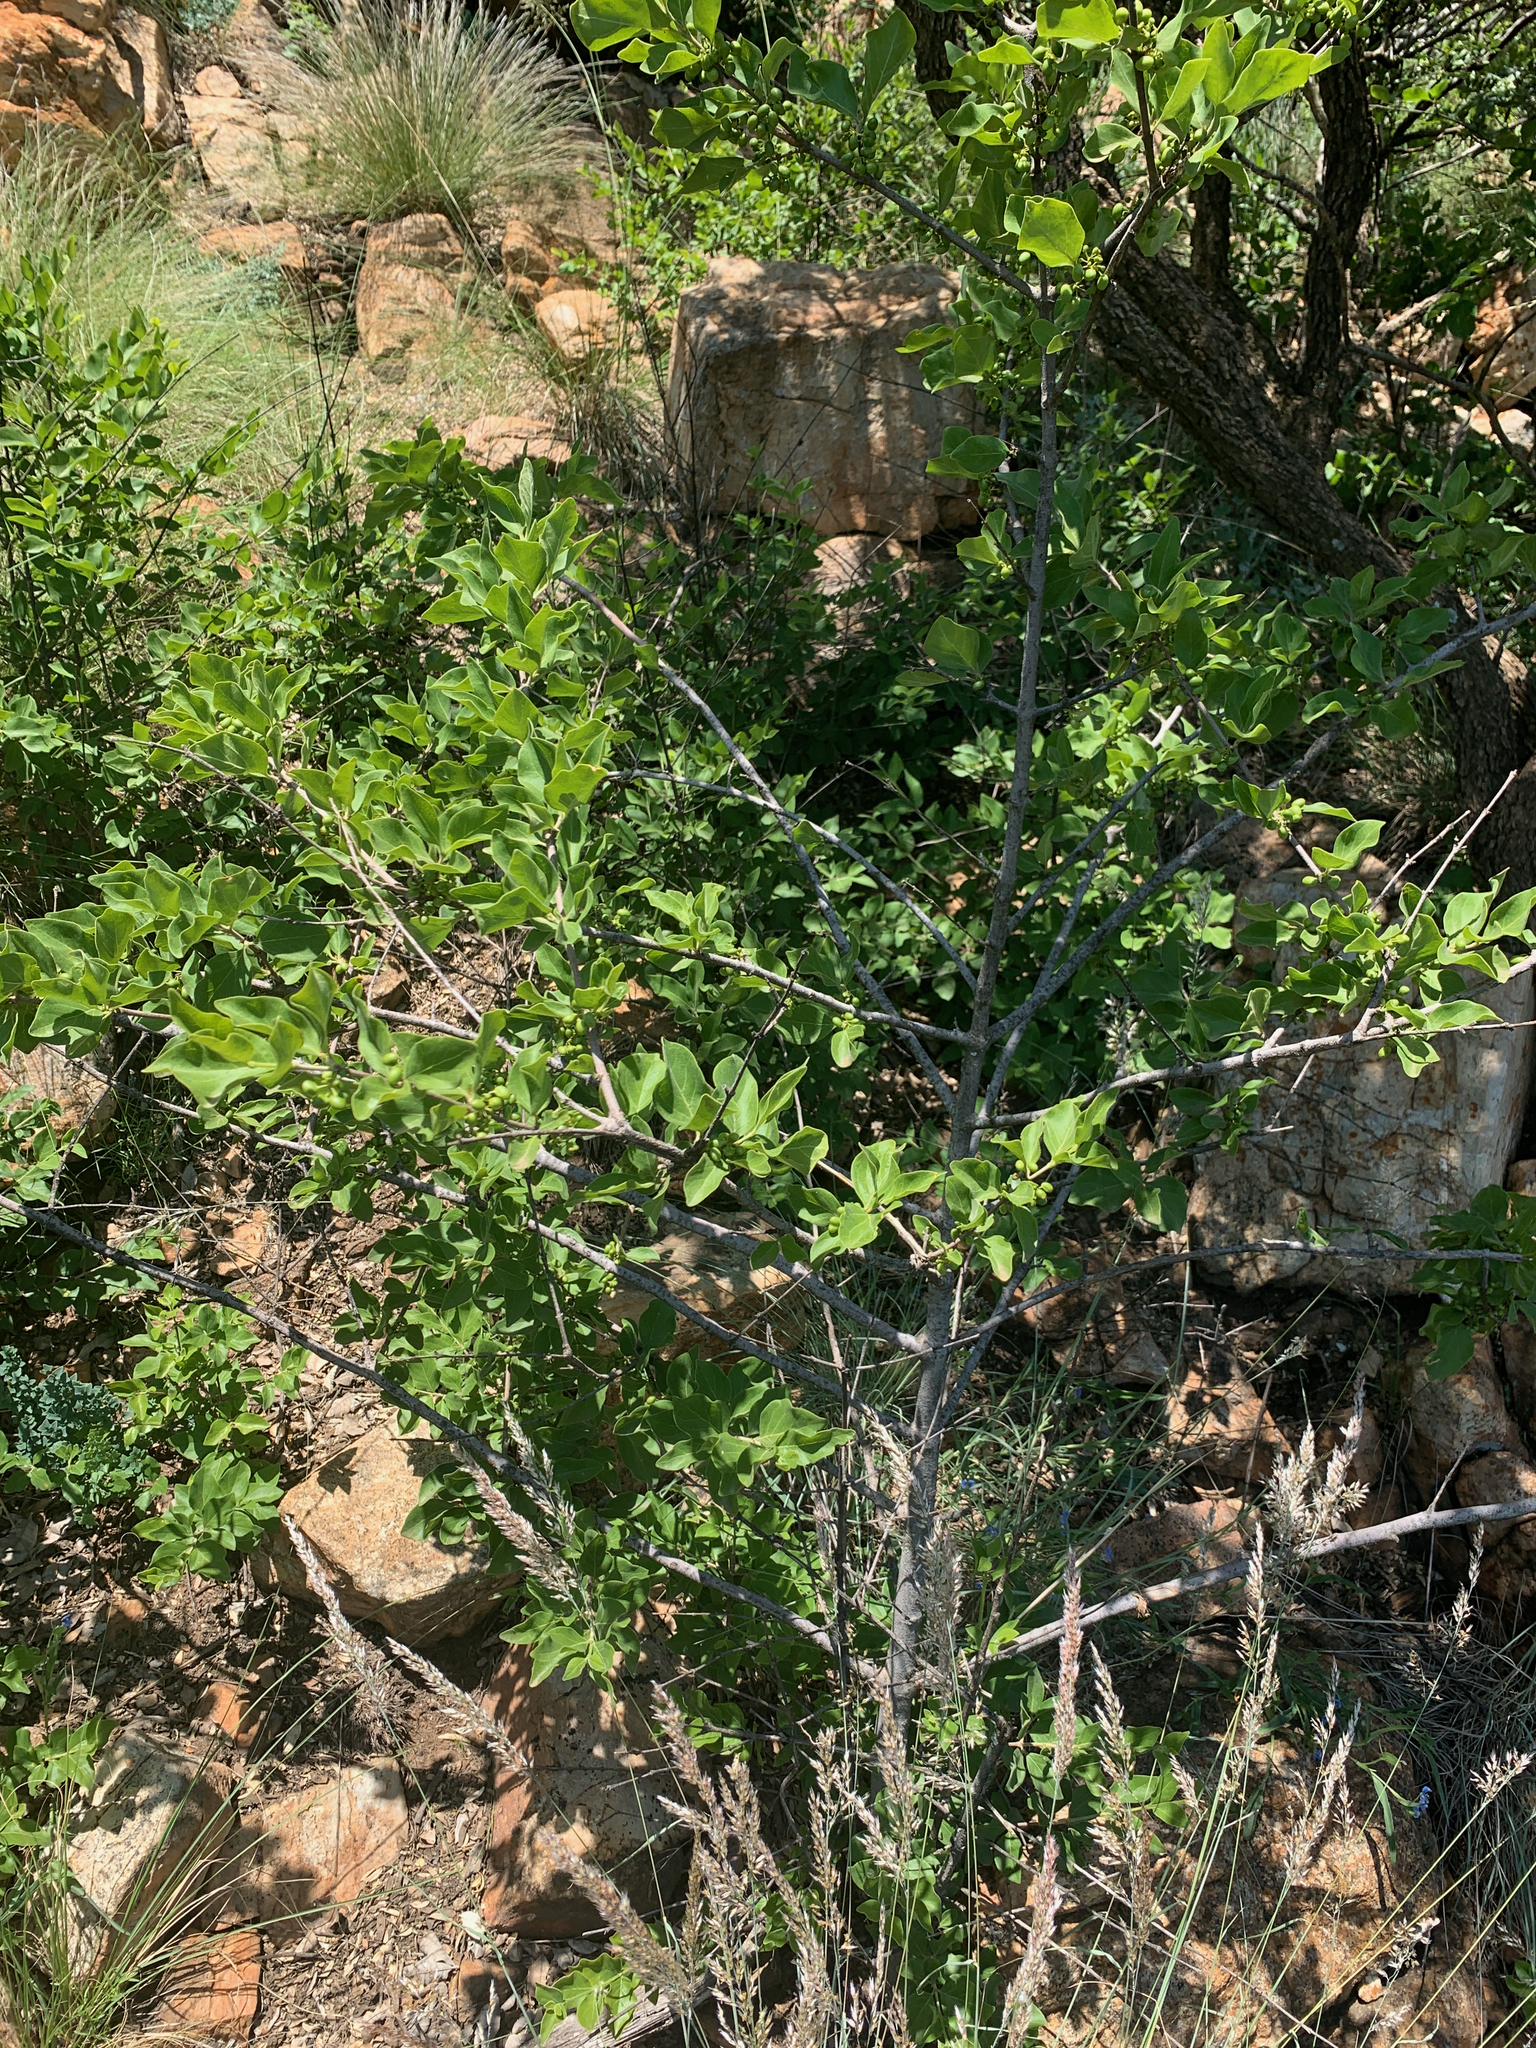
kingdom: Plantae
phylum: Tracheophyta
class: Magnoliopsida
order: Gentianales
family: Rubiaceae
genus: Afrocanthium
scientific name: Afrocanthium gilfillanii
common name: Velvet rock-alder
